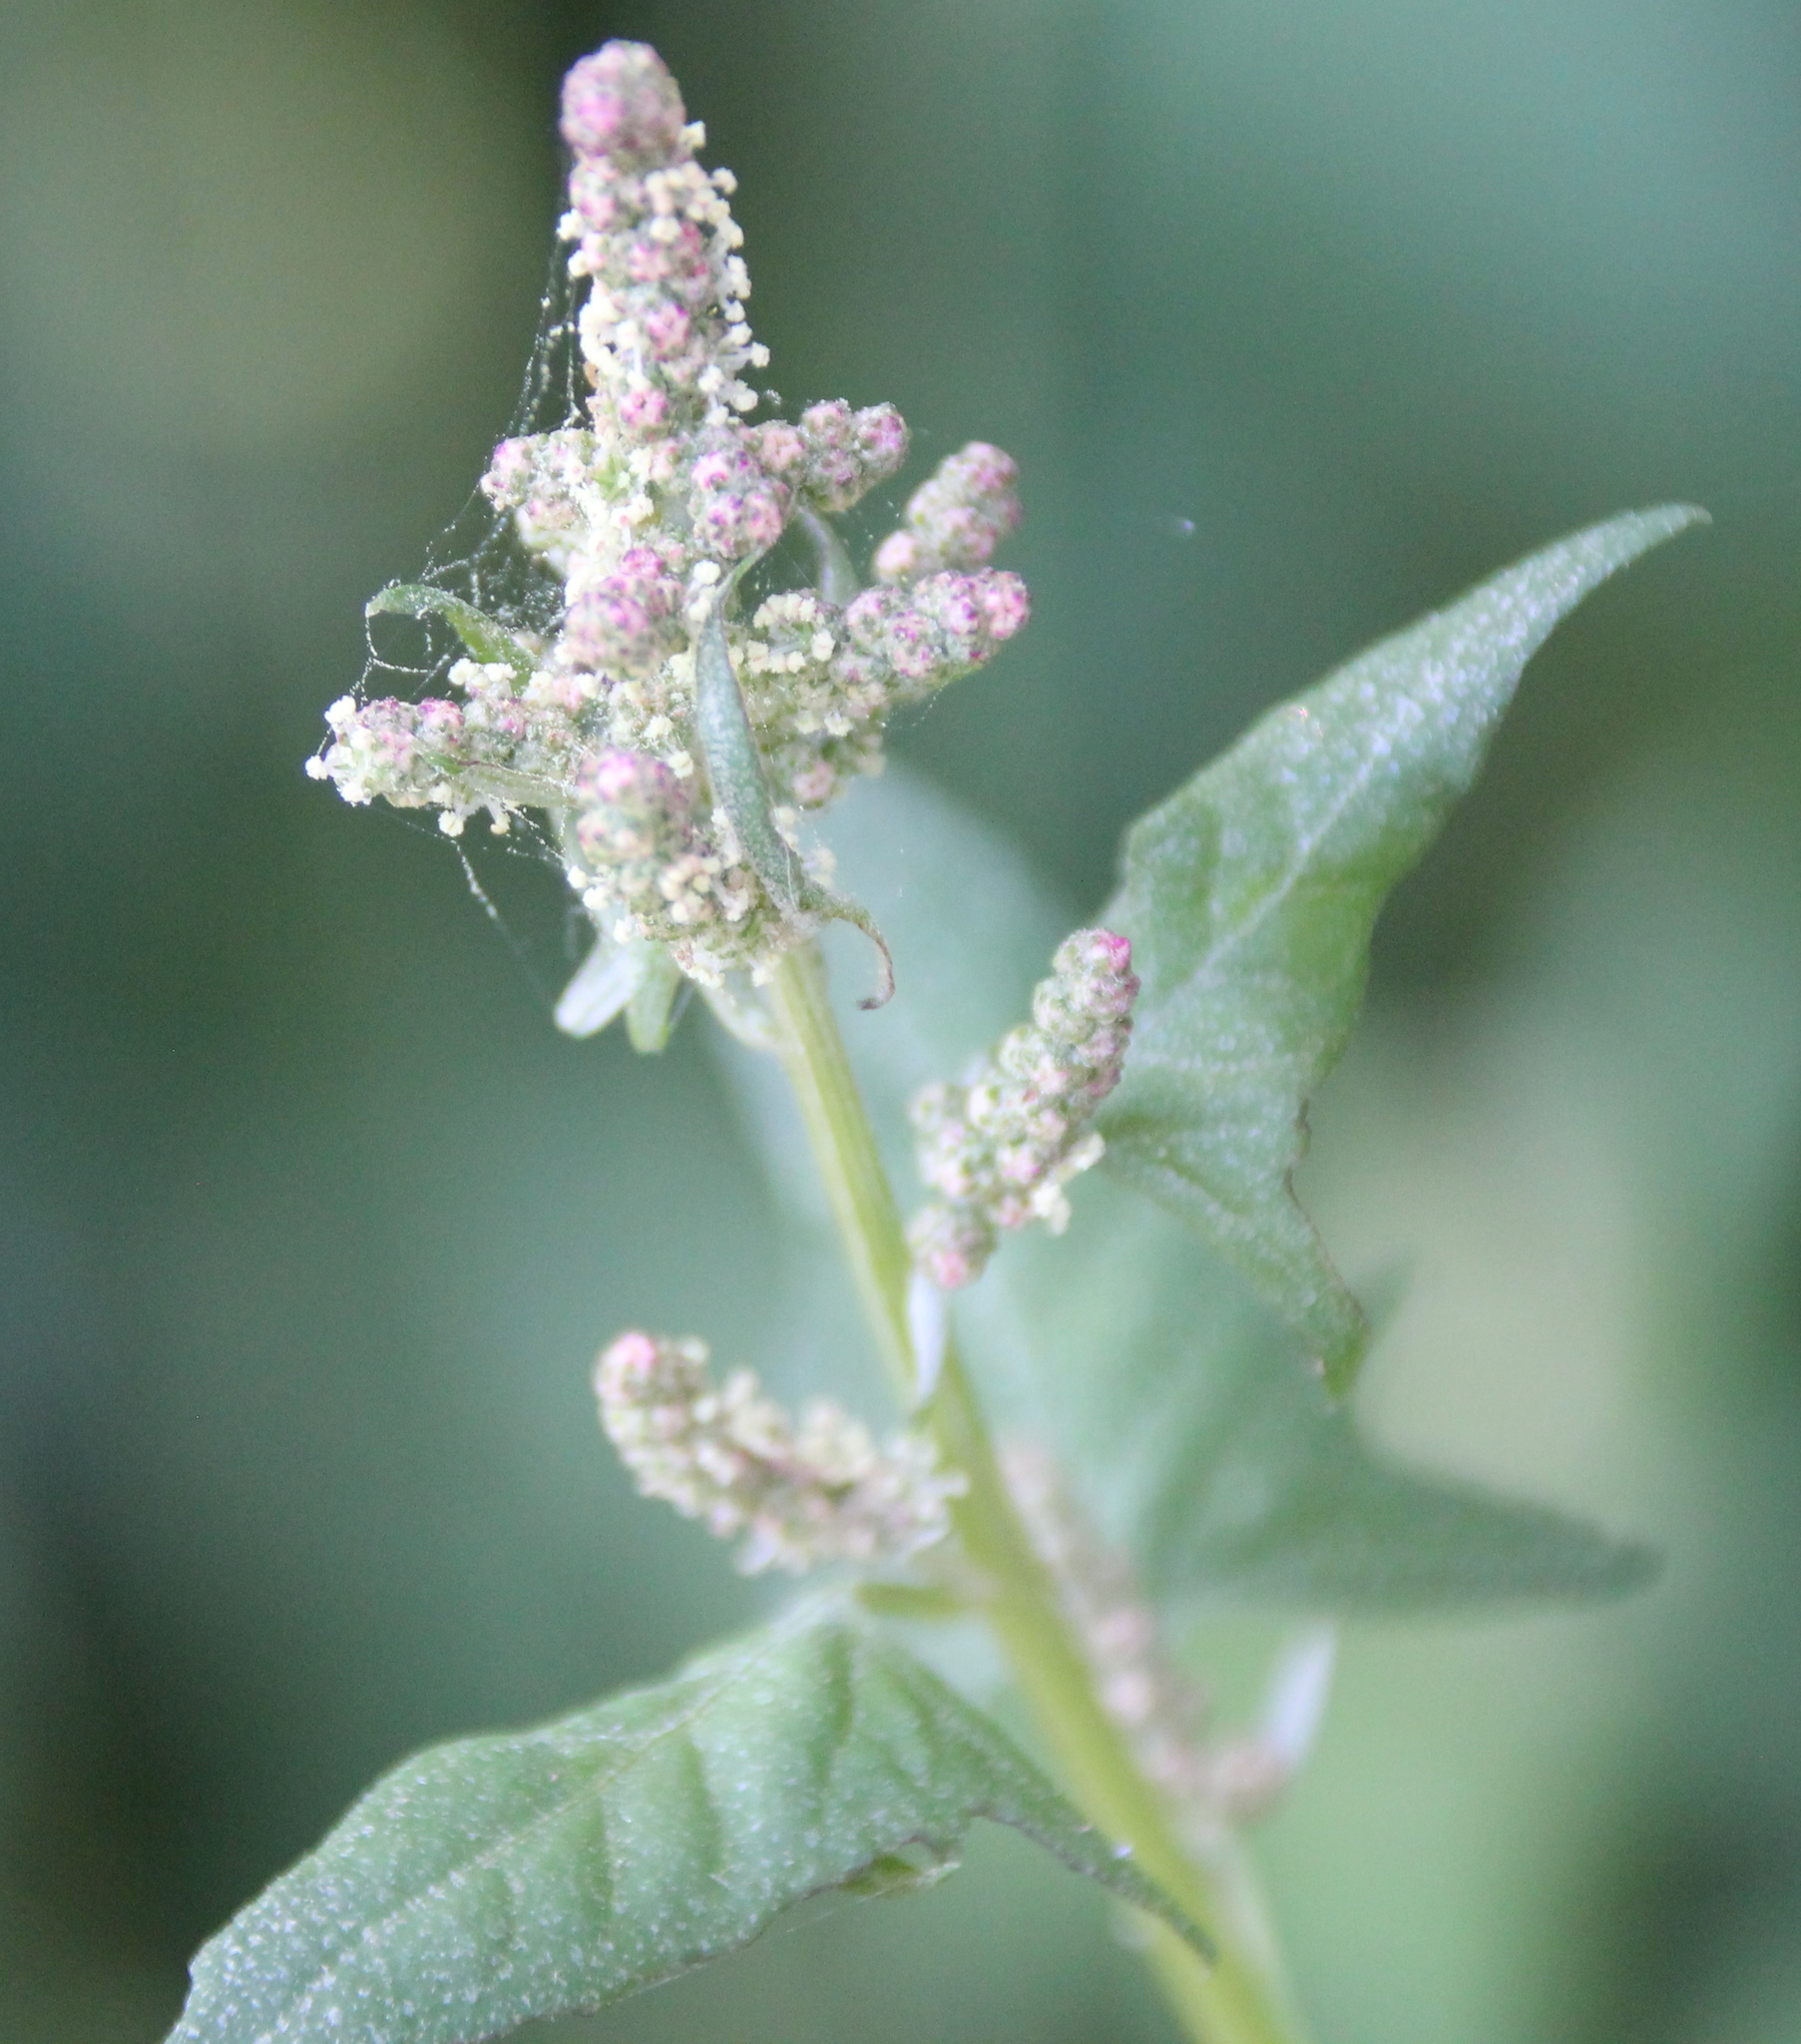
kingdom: Plantae
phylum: Tracheophyta
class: Magnoliopsida
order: Caryophyllales
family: Amaranthaceae
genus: Atriplex
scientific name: Atriplex prostrata
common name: Spear-leaved orache
